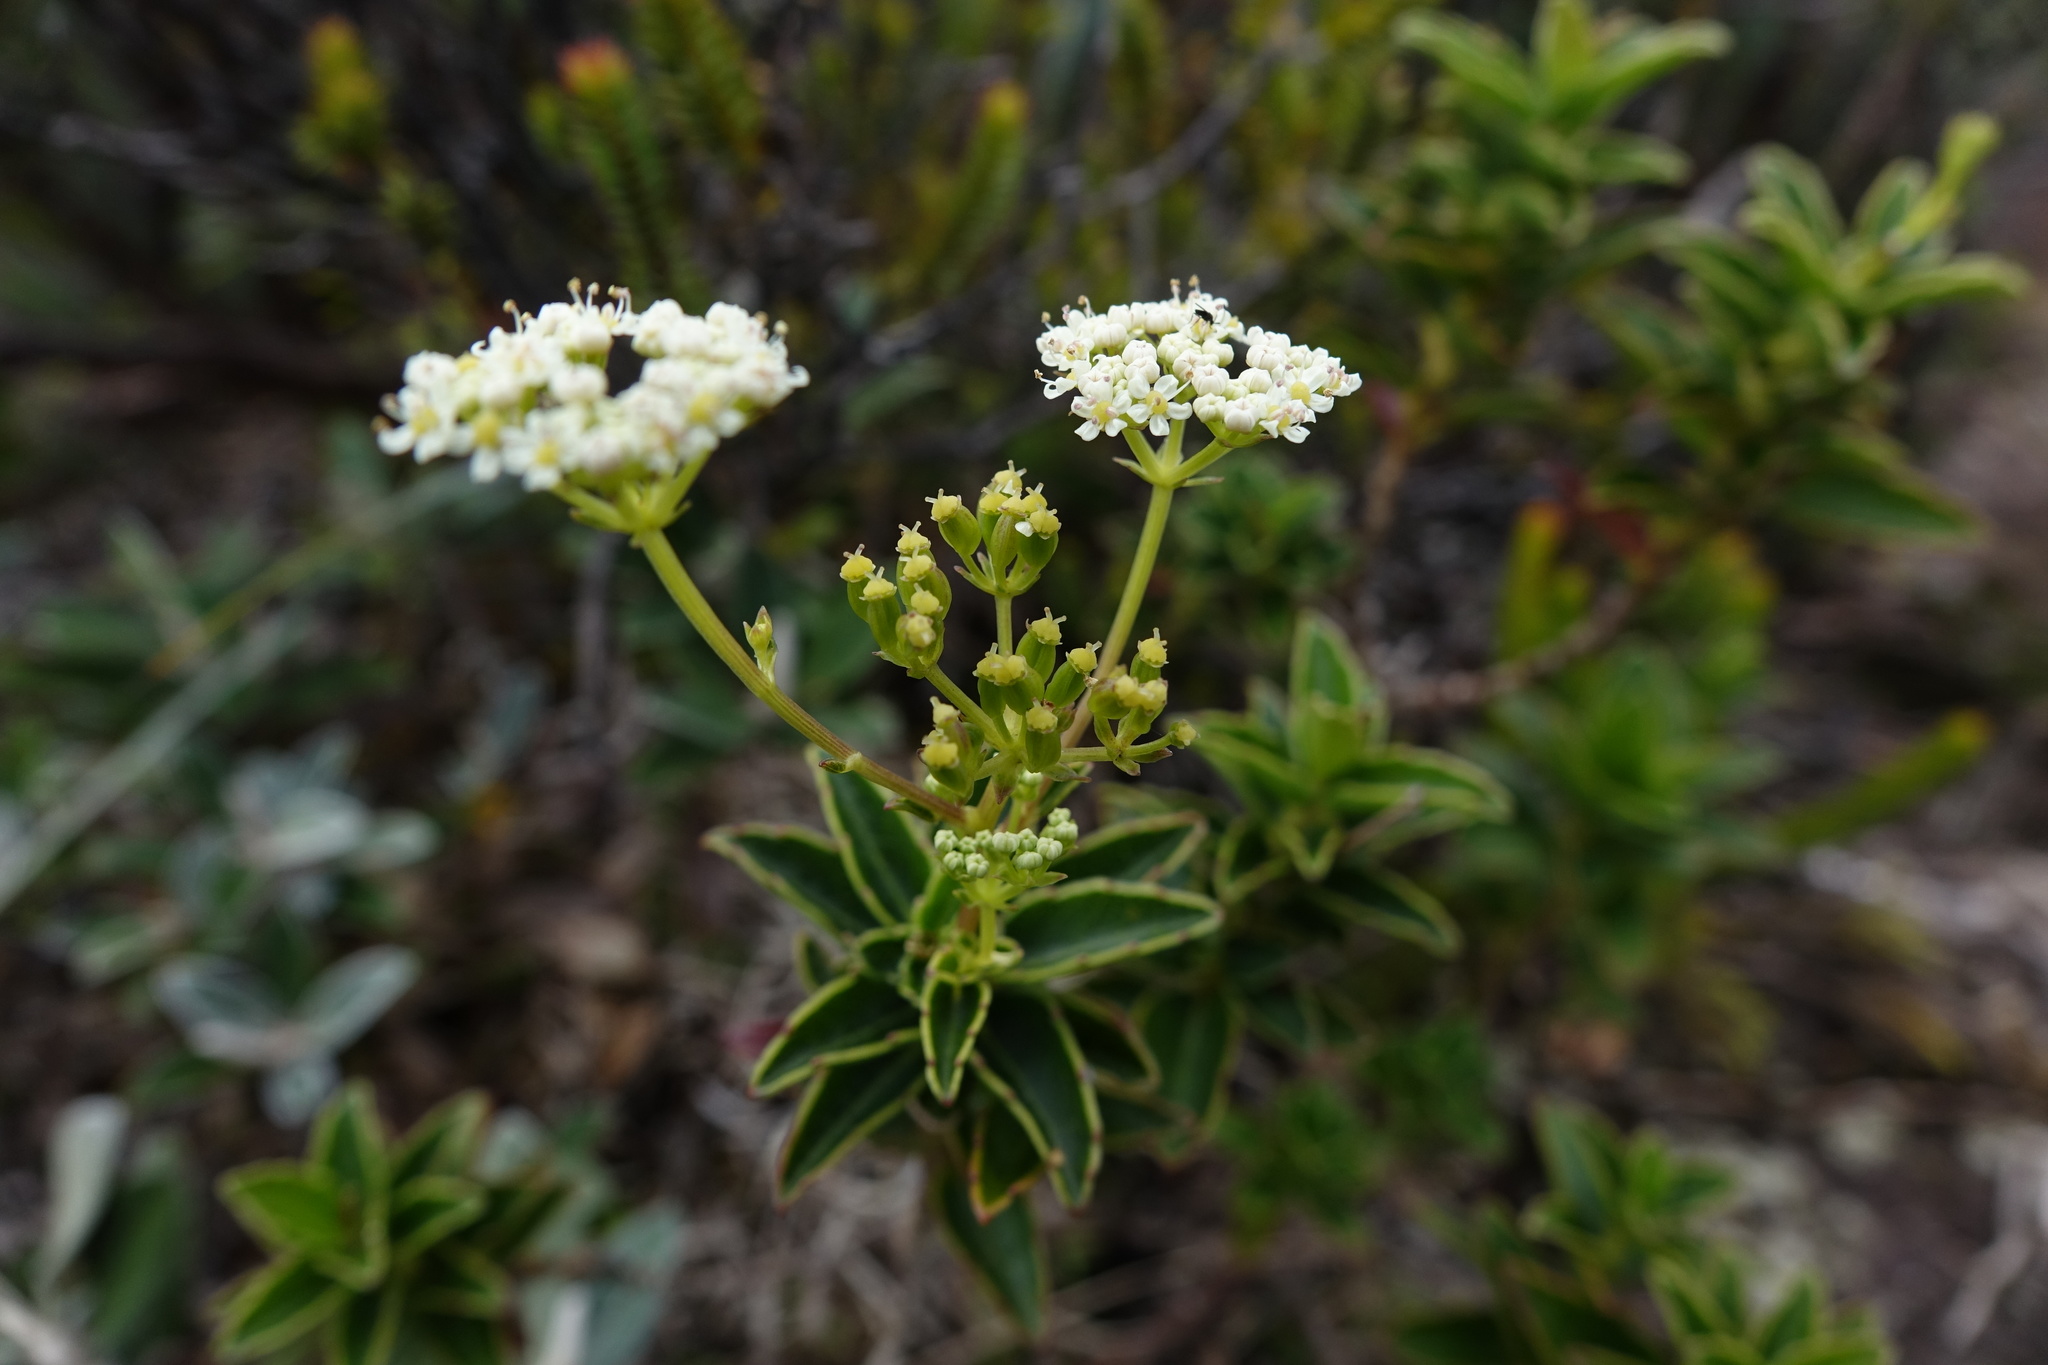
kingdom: Plantae
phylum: Tracheophyta
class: Magnoliopsida
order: Apiales
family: Apiaceae
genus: Andriana
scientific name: Andriana marojejyensis
